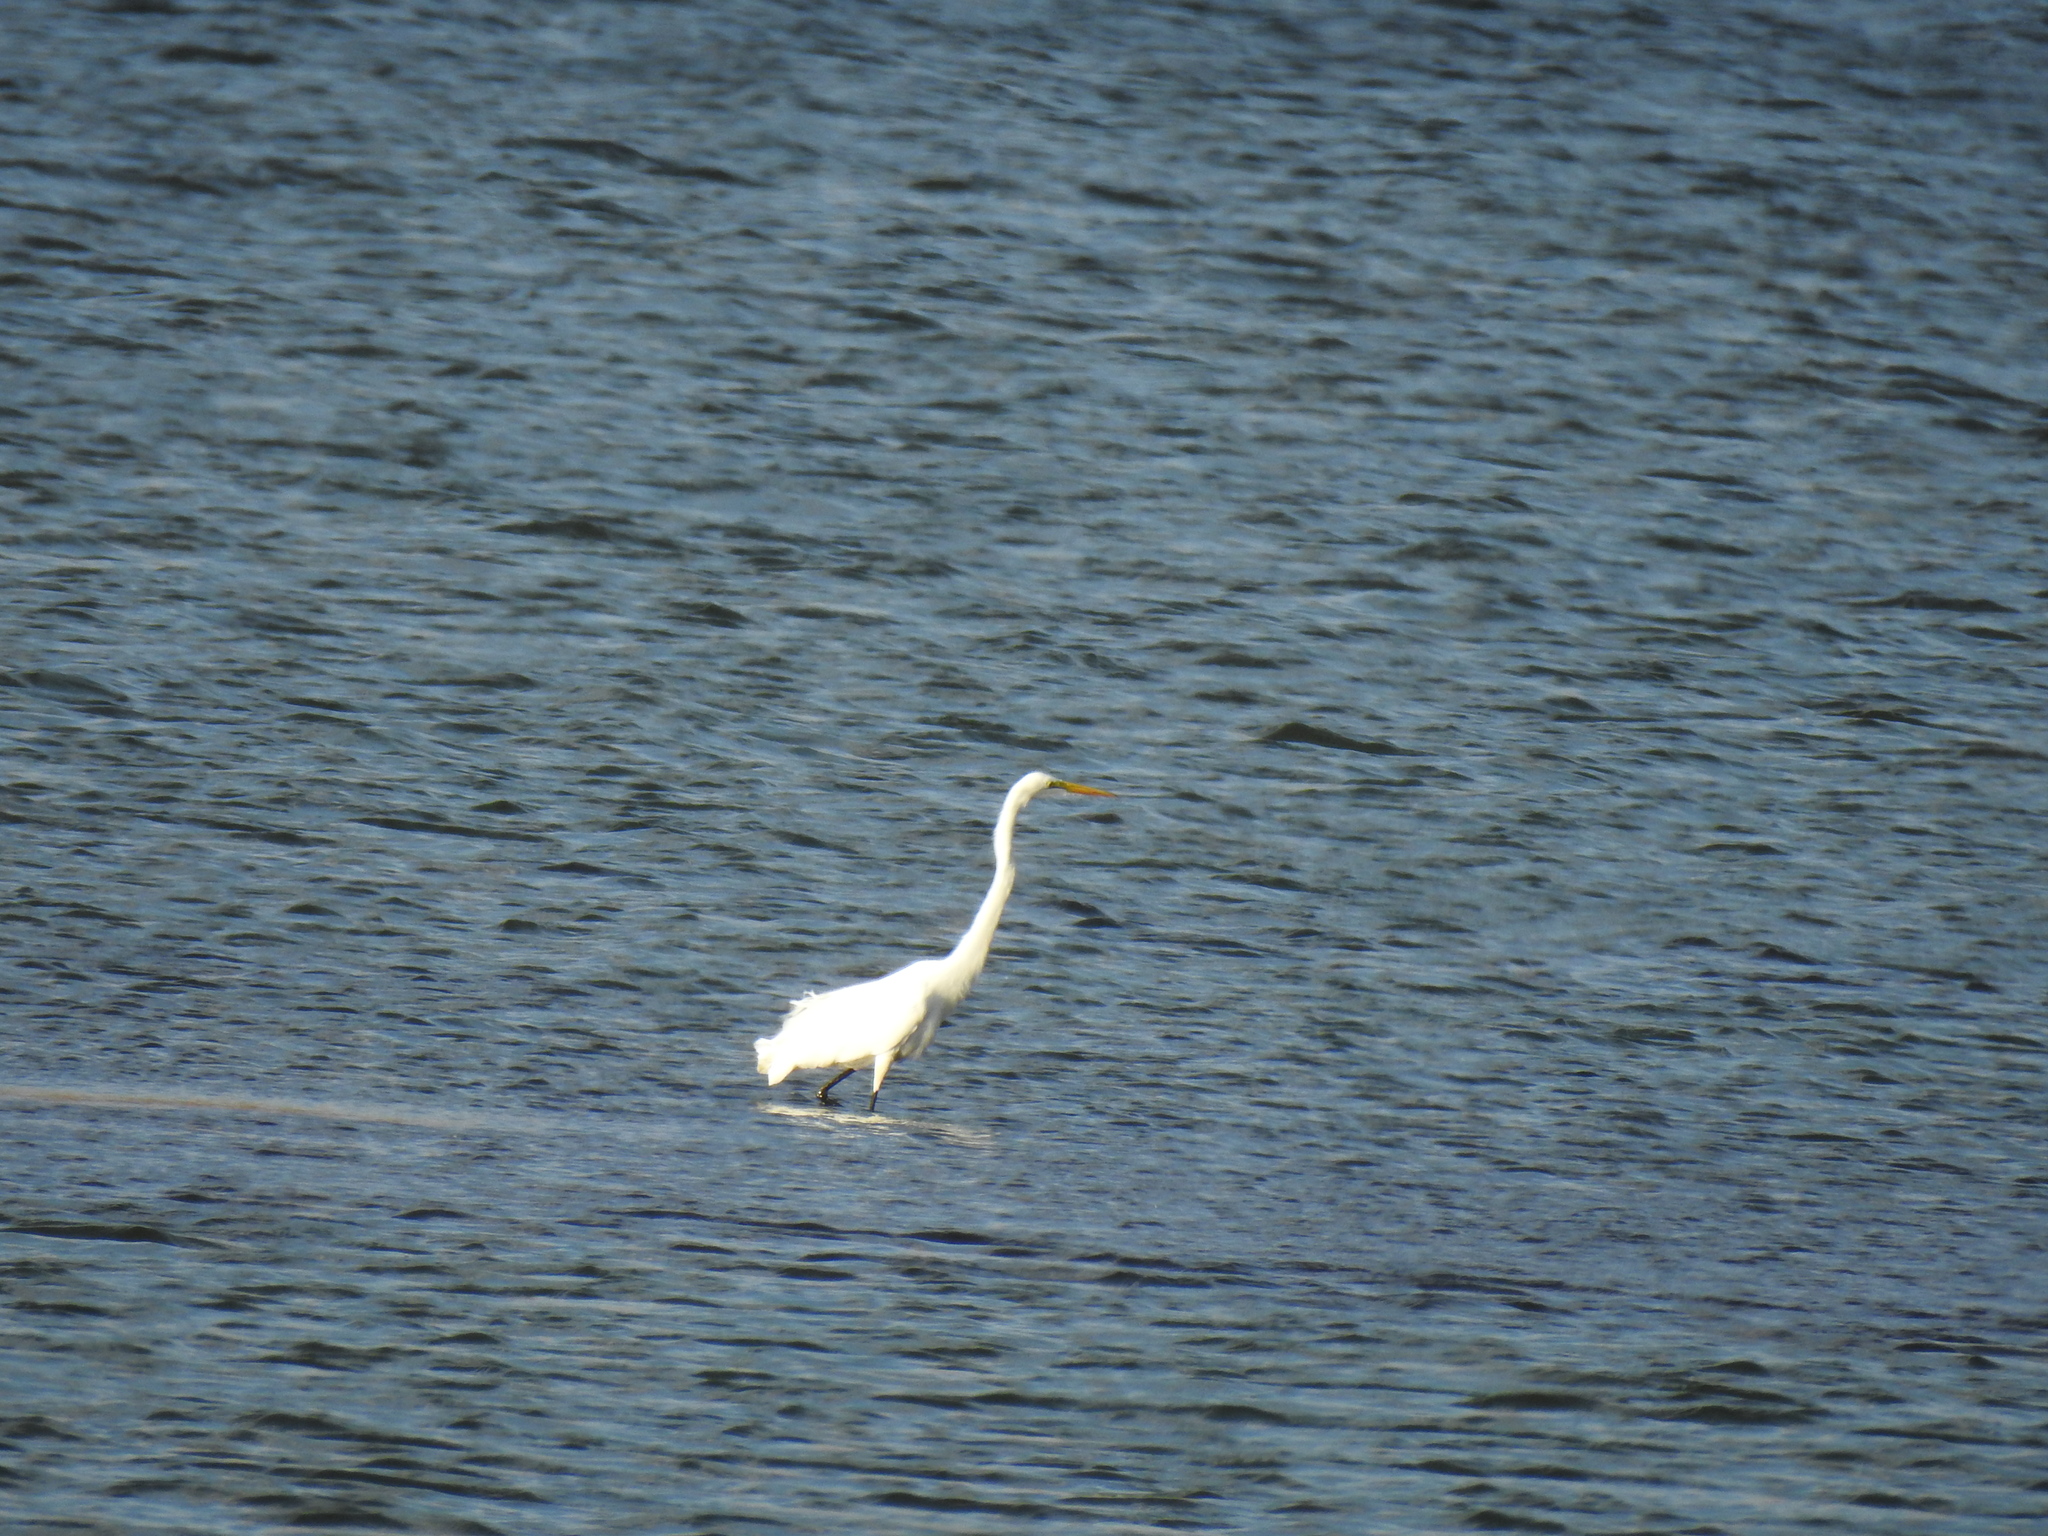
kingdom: Animalia
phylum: Chordata
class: Aves
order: Pelecaniformes
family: Ardeidae
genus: Ardea
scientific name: Ardea alba
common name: Great egret
